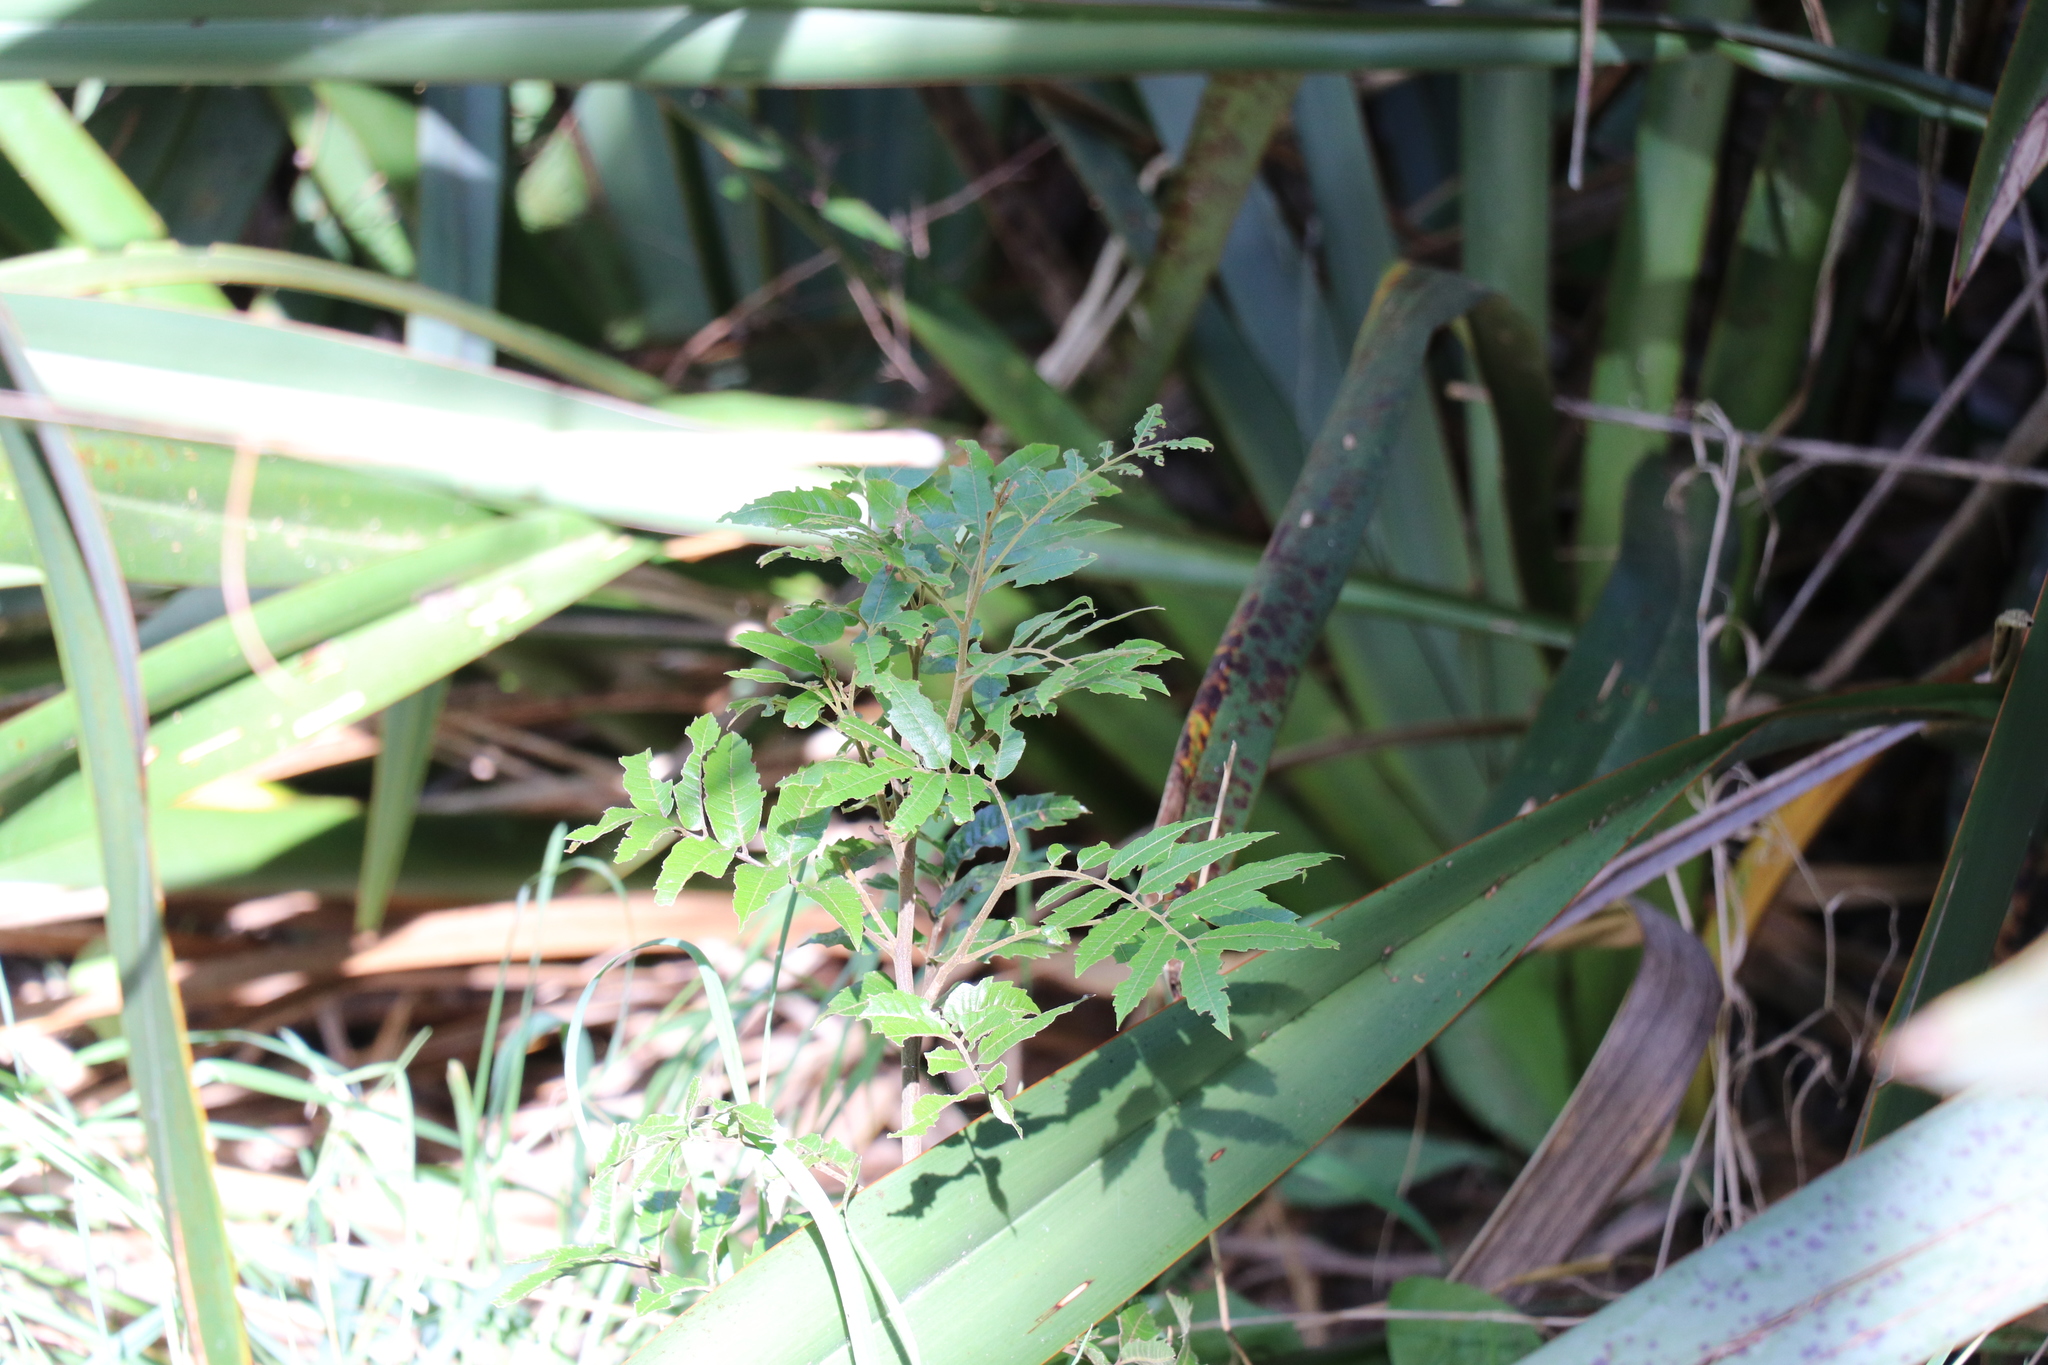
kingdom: Plantae
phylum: Tracheophyta
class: Magnoliopsida
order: Sapindales
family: Sapindaceae
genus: Alectryon
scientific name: Alectryon excelsus
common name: Three kings titoki
